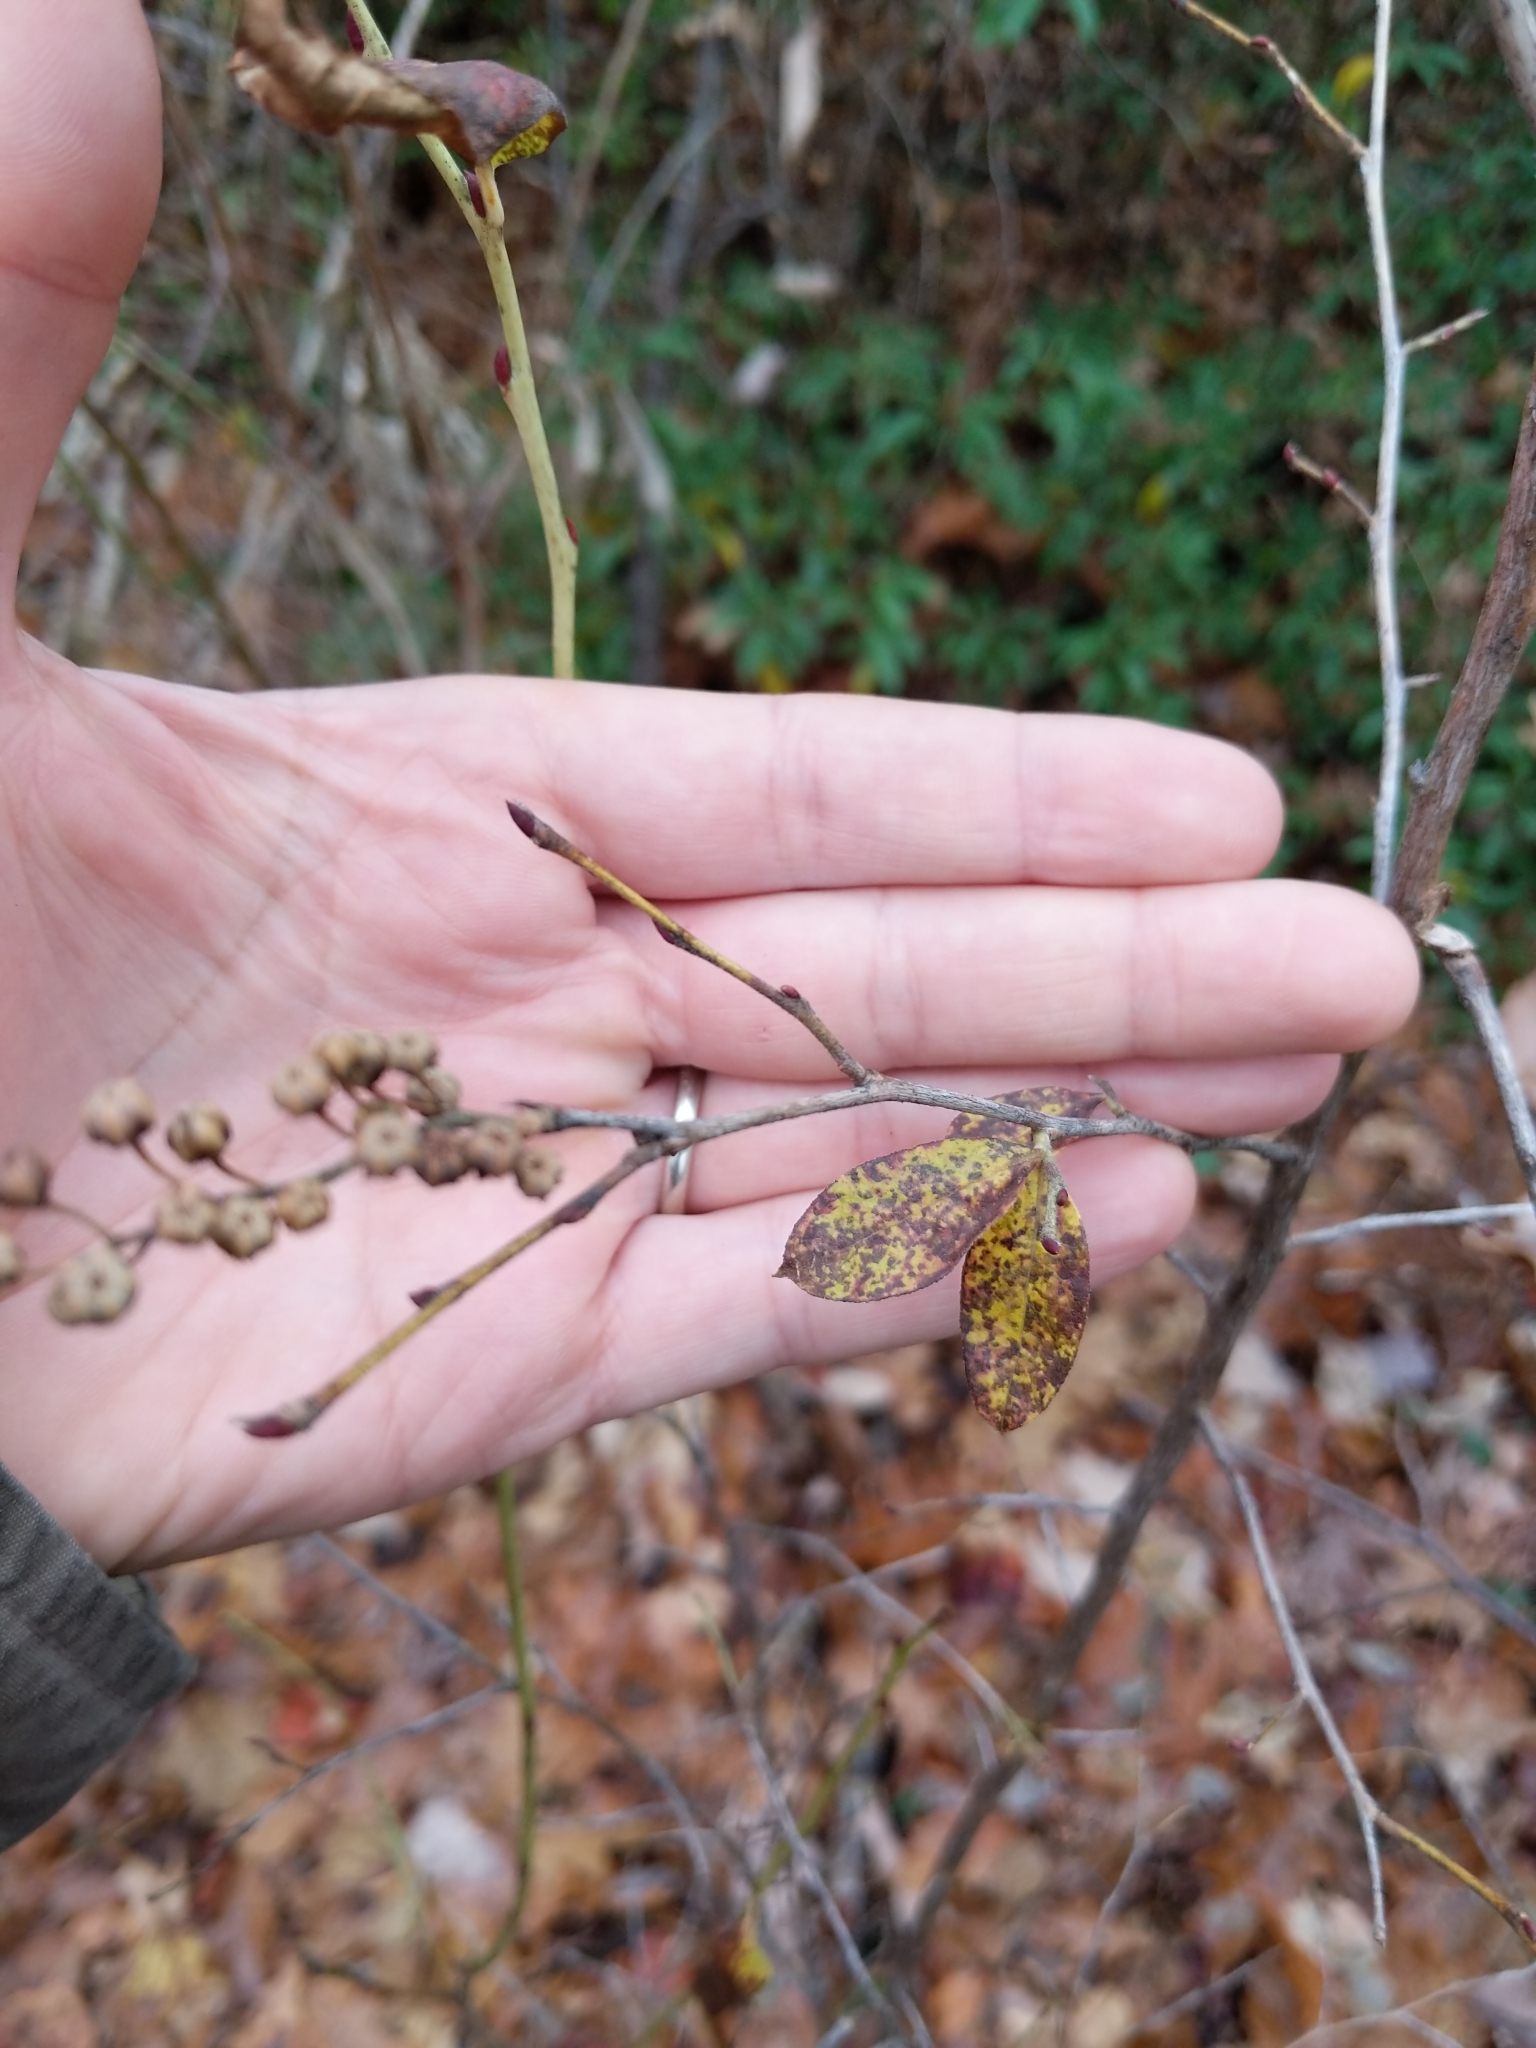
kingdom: Plantae
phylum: Tracheophyta
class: Magnoliopsida
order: Ericales
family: Ericaceae
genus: Lyonia
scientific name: Lyonia ligustrina
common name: Maleberry
